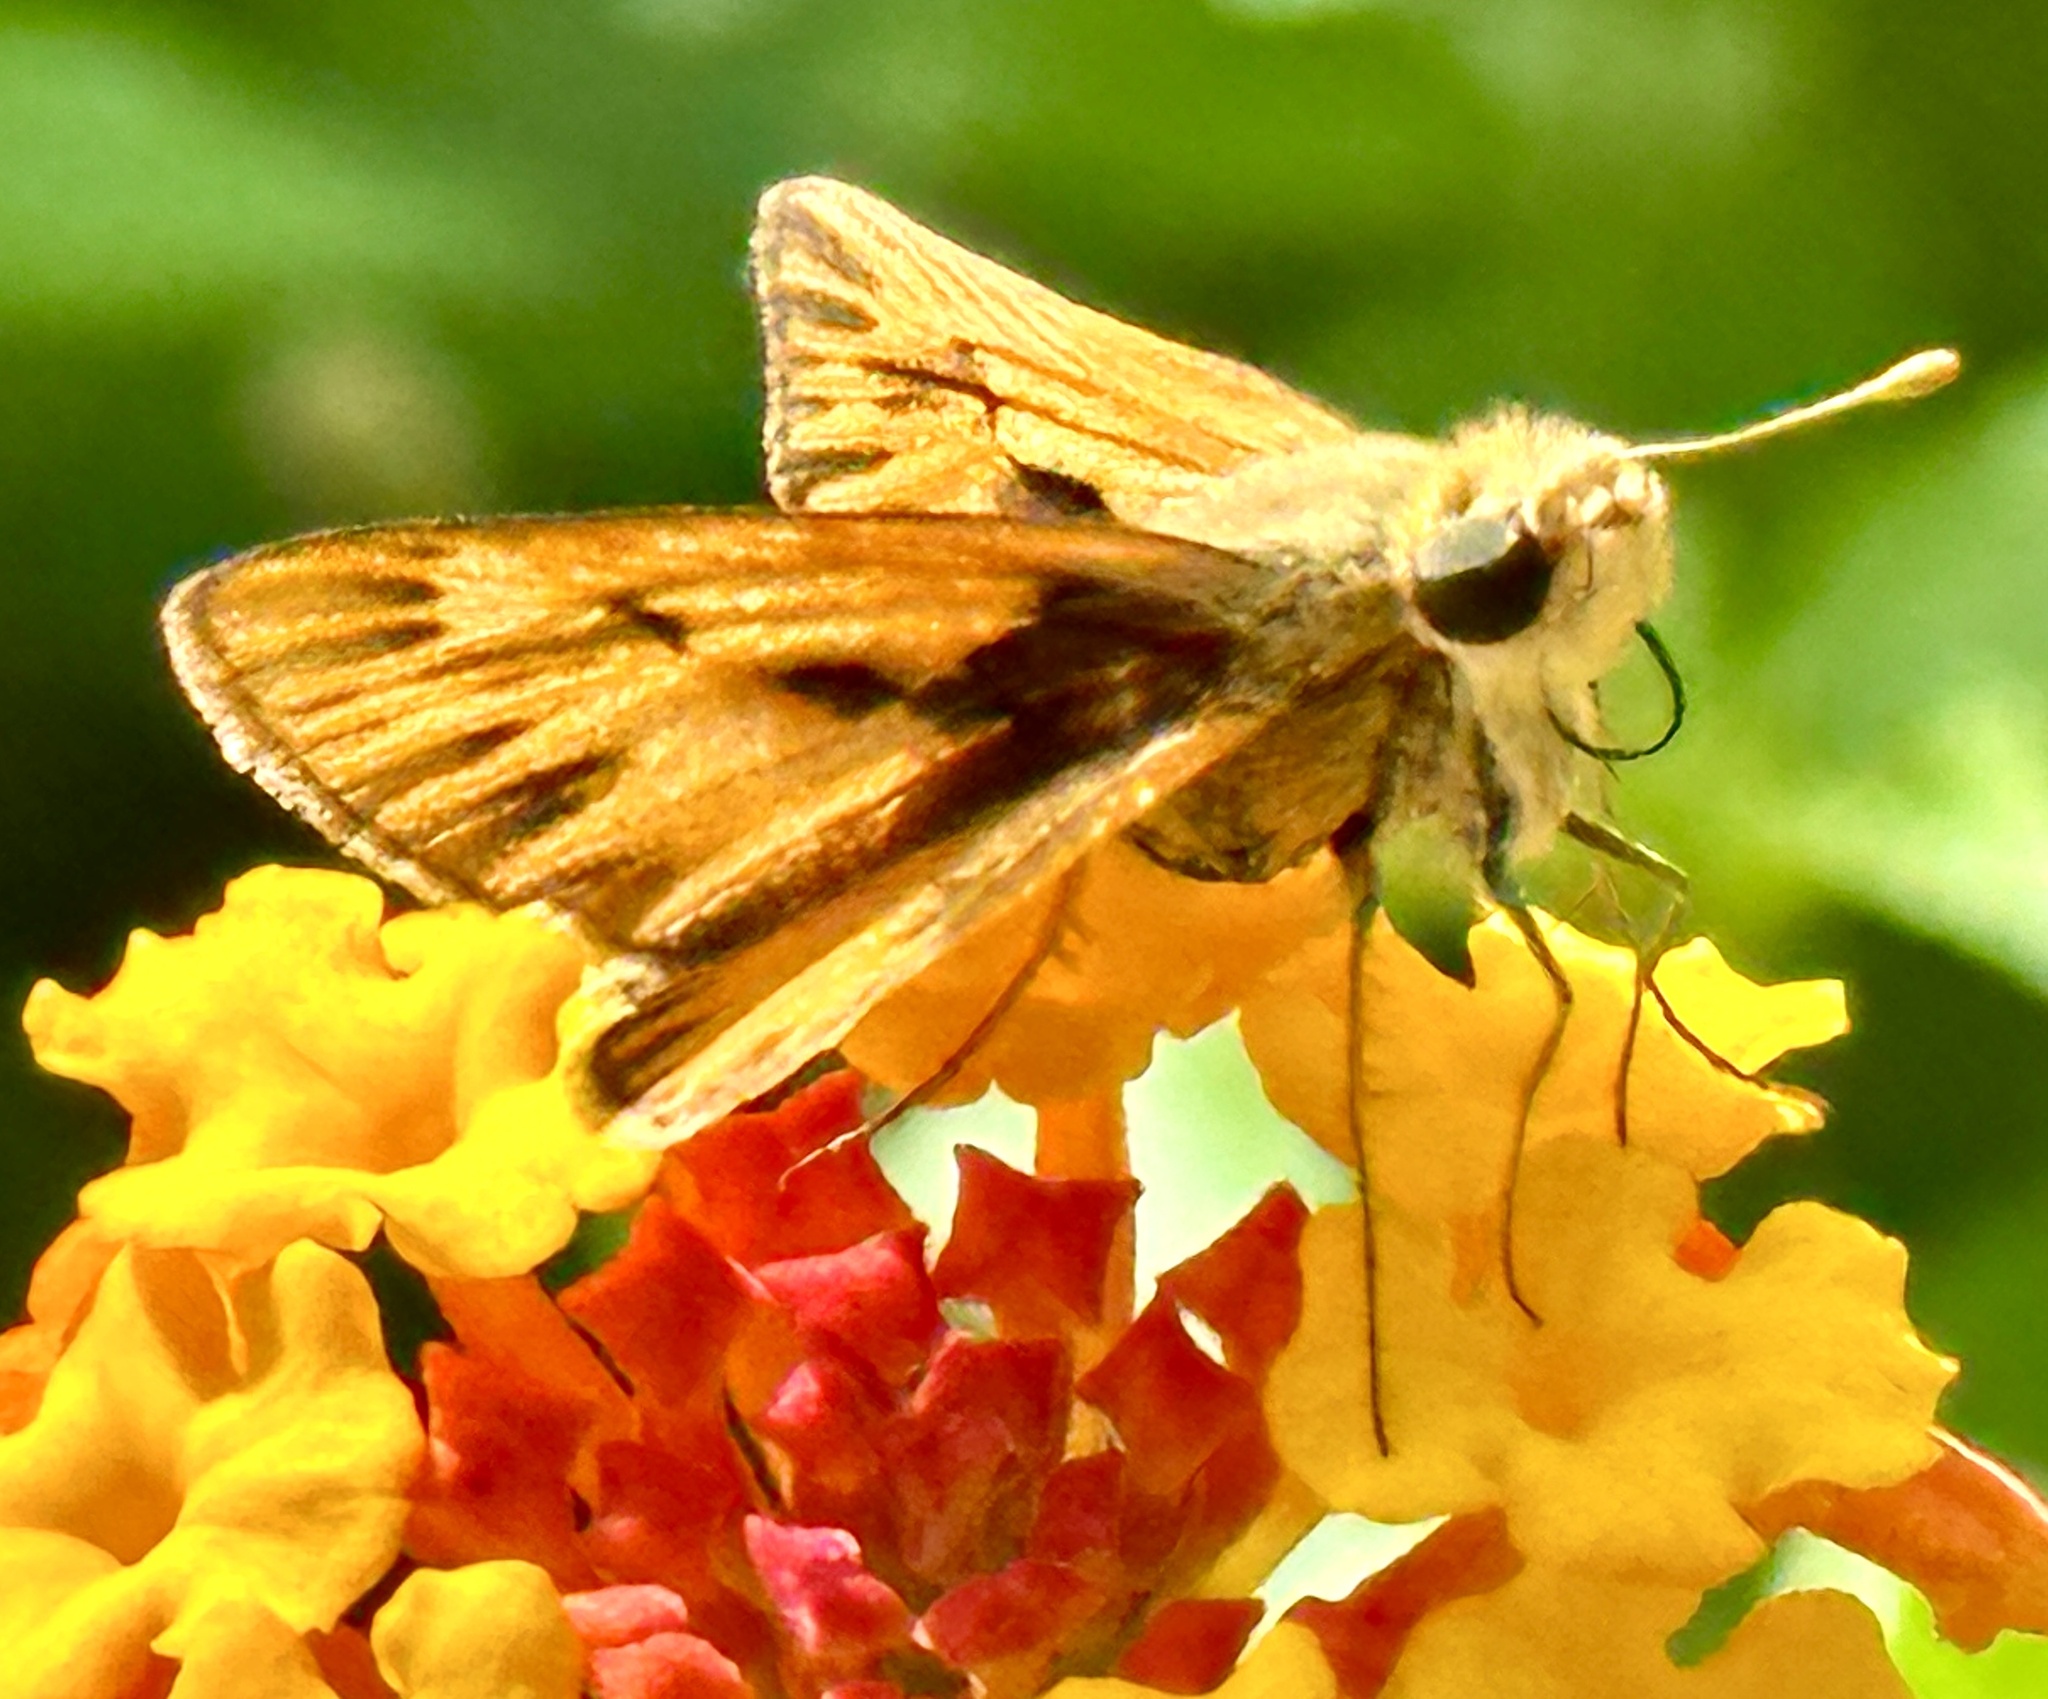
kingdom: Animalia
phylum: Arthropoda
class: Insecta
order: Lepidoptera
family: Hesperiidae
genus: Hylephila
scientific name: Hylephila phyleus
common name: Fiery skipper
